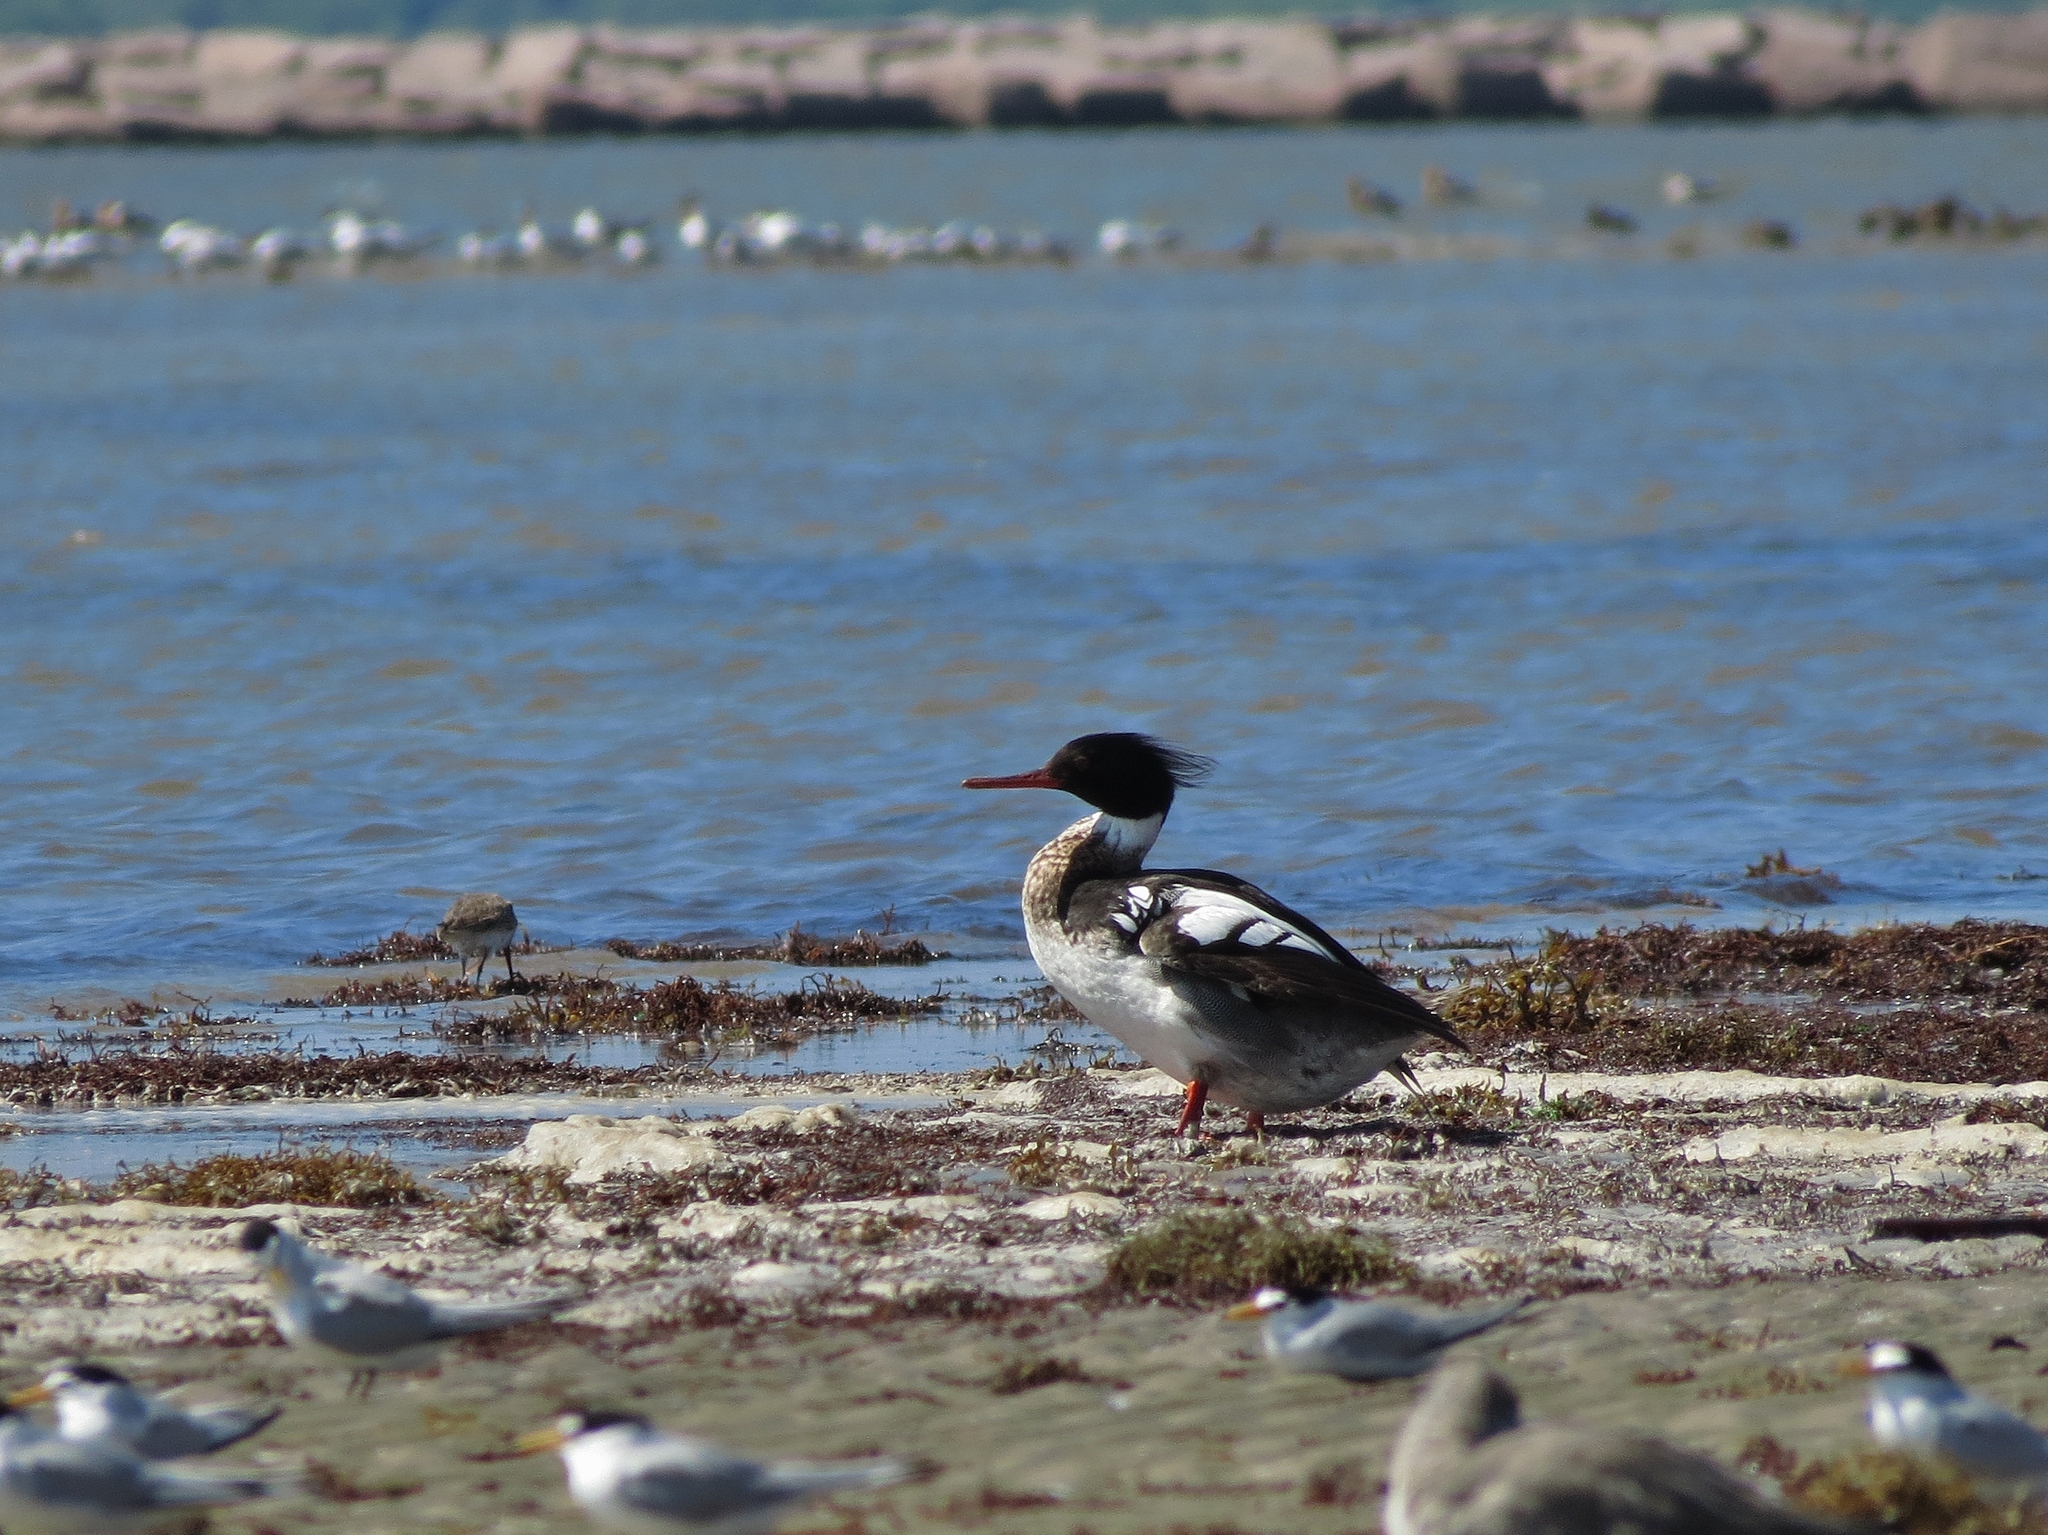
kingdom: Animalia
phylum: Chordata
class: Aves
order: Anseriformes
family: Anatidae
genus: Mergus
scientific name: Mergus serrator
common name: Red-breasted merganser
